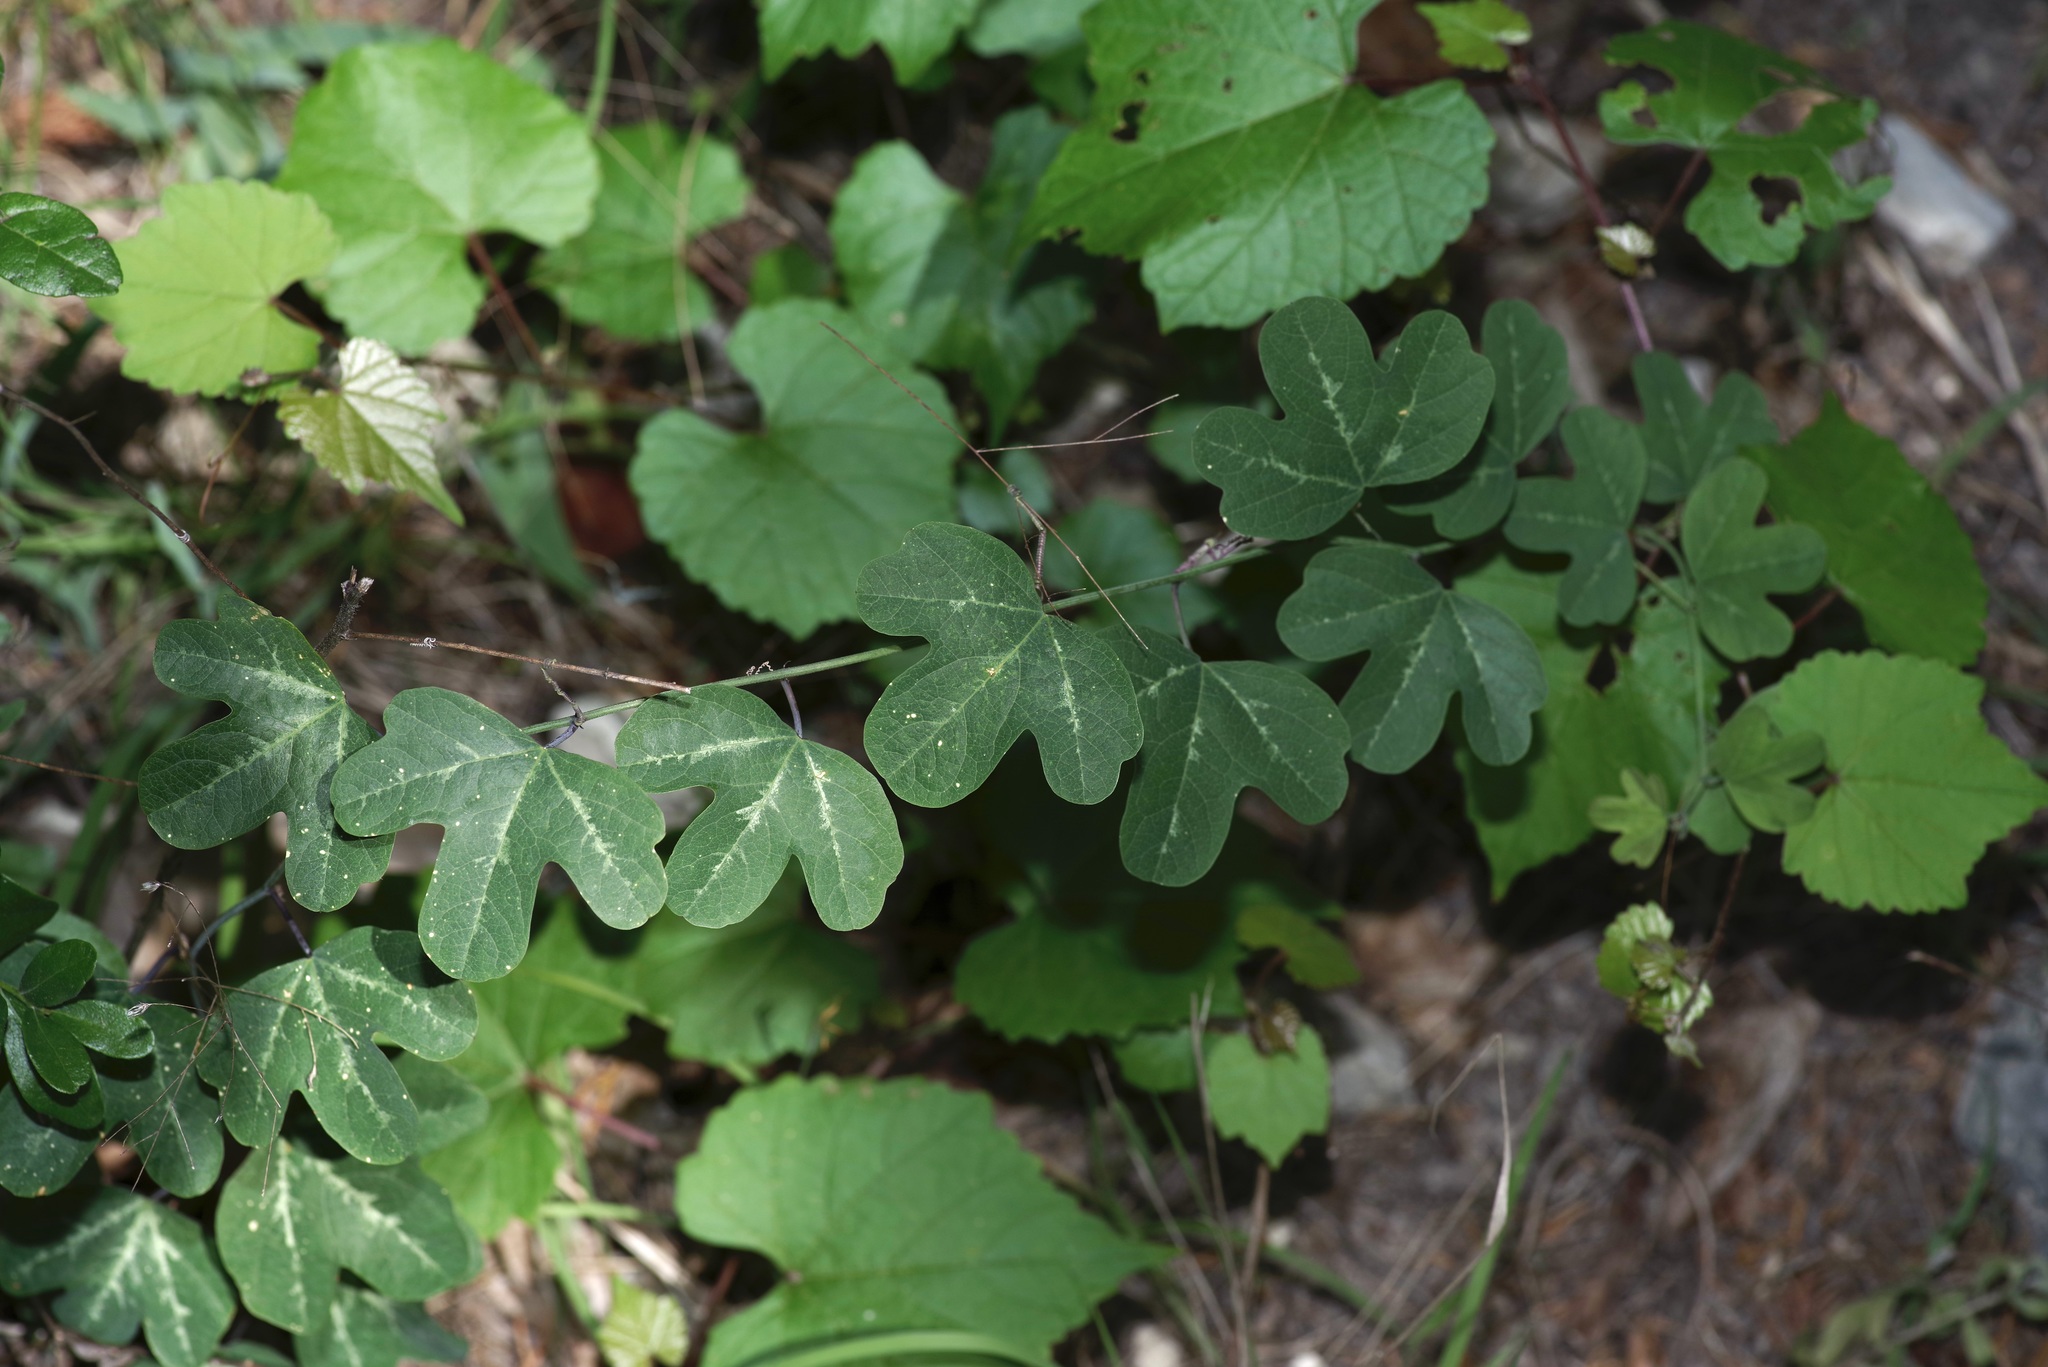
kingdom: Plantae
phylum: Tracheophyta
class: Magnoliopsida
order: Malpighiales
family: Passifloraceae
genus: Passiflora
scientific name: Passiflora affinis
